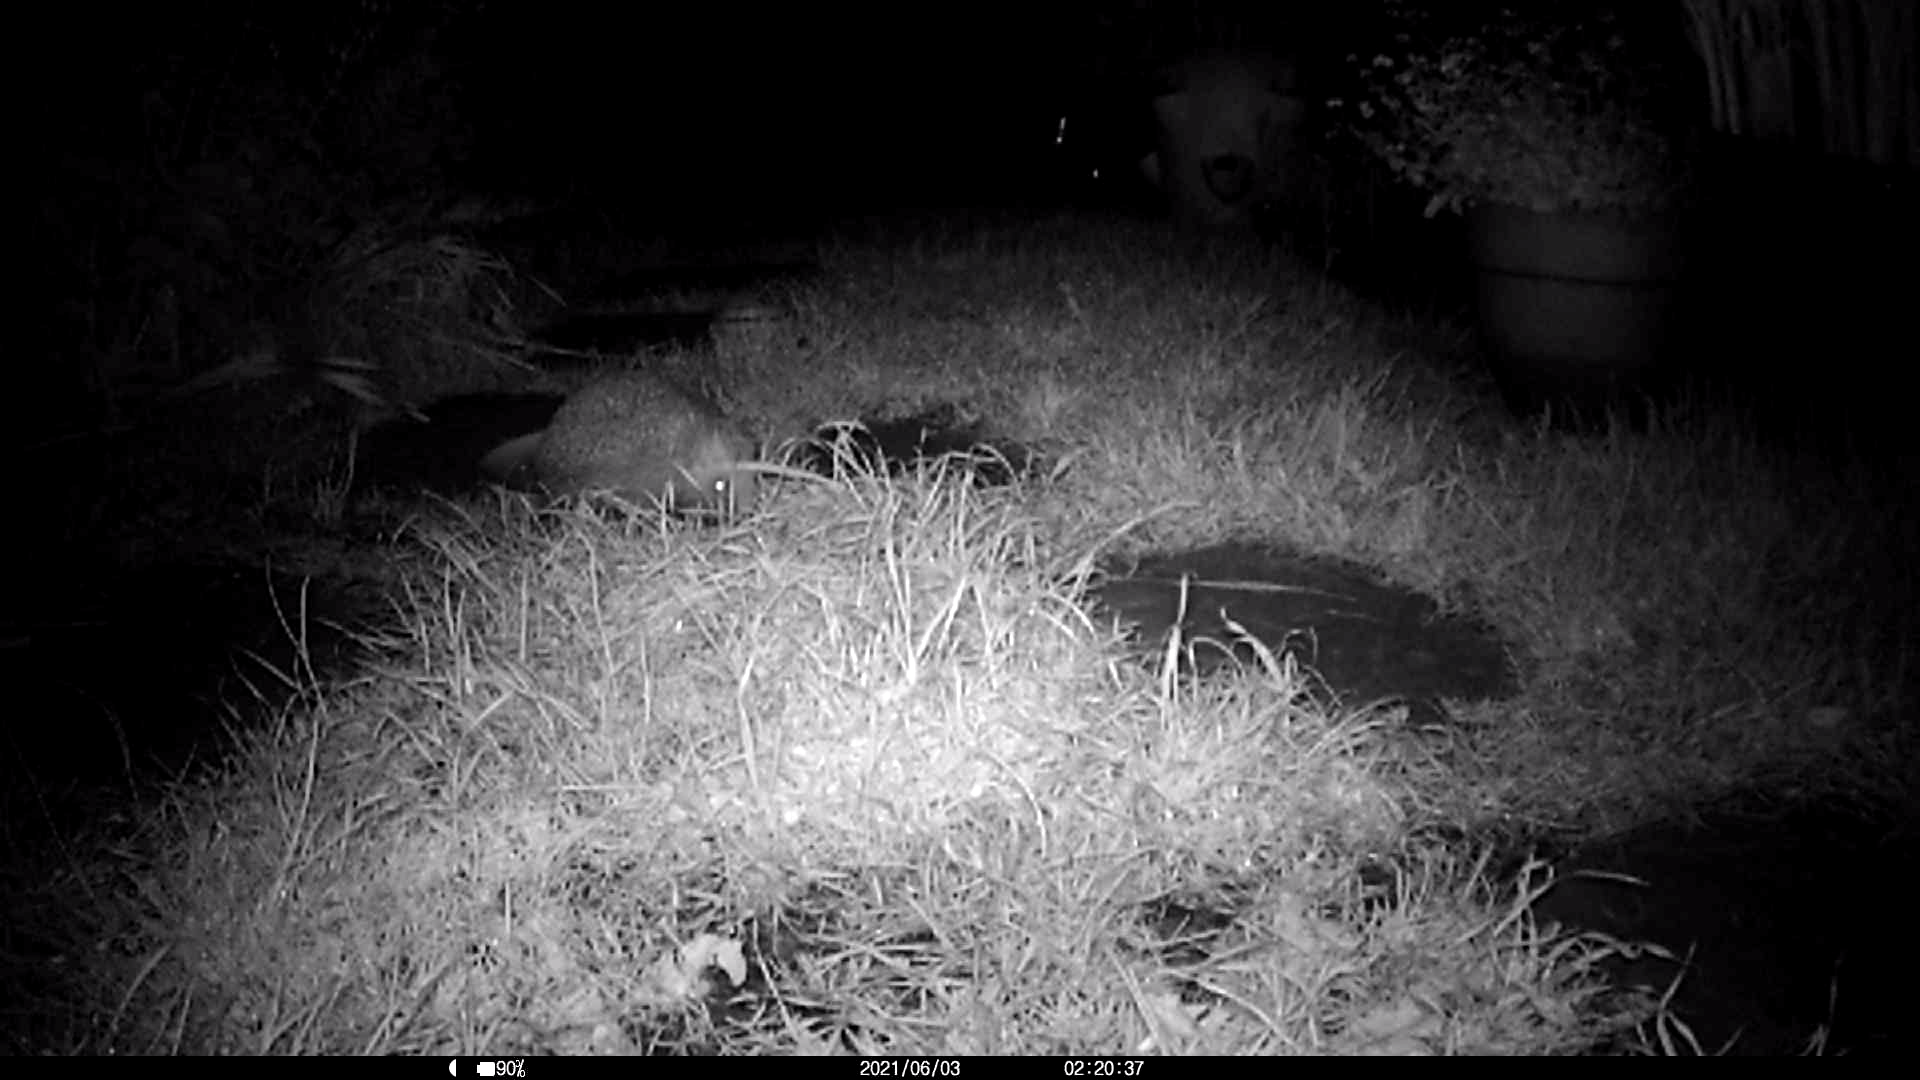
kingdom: Animalia
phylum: Chordata
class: Mammalia
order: Erinaceomorpha
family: Erinaceidae
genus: Erinaceus
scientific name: Erinaceus europaeus
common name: West european hedgehog
